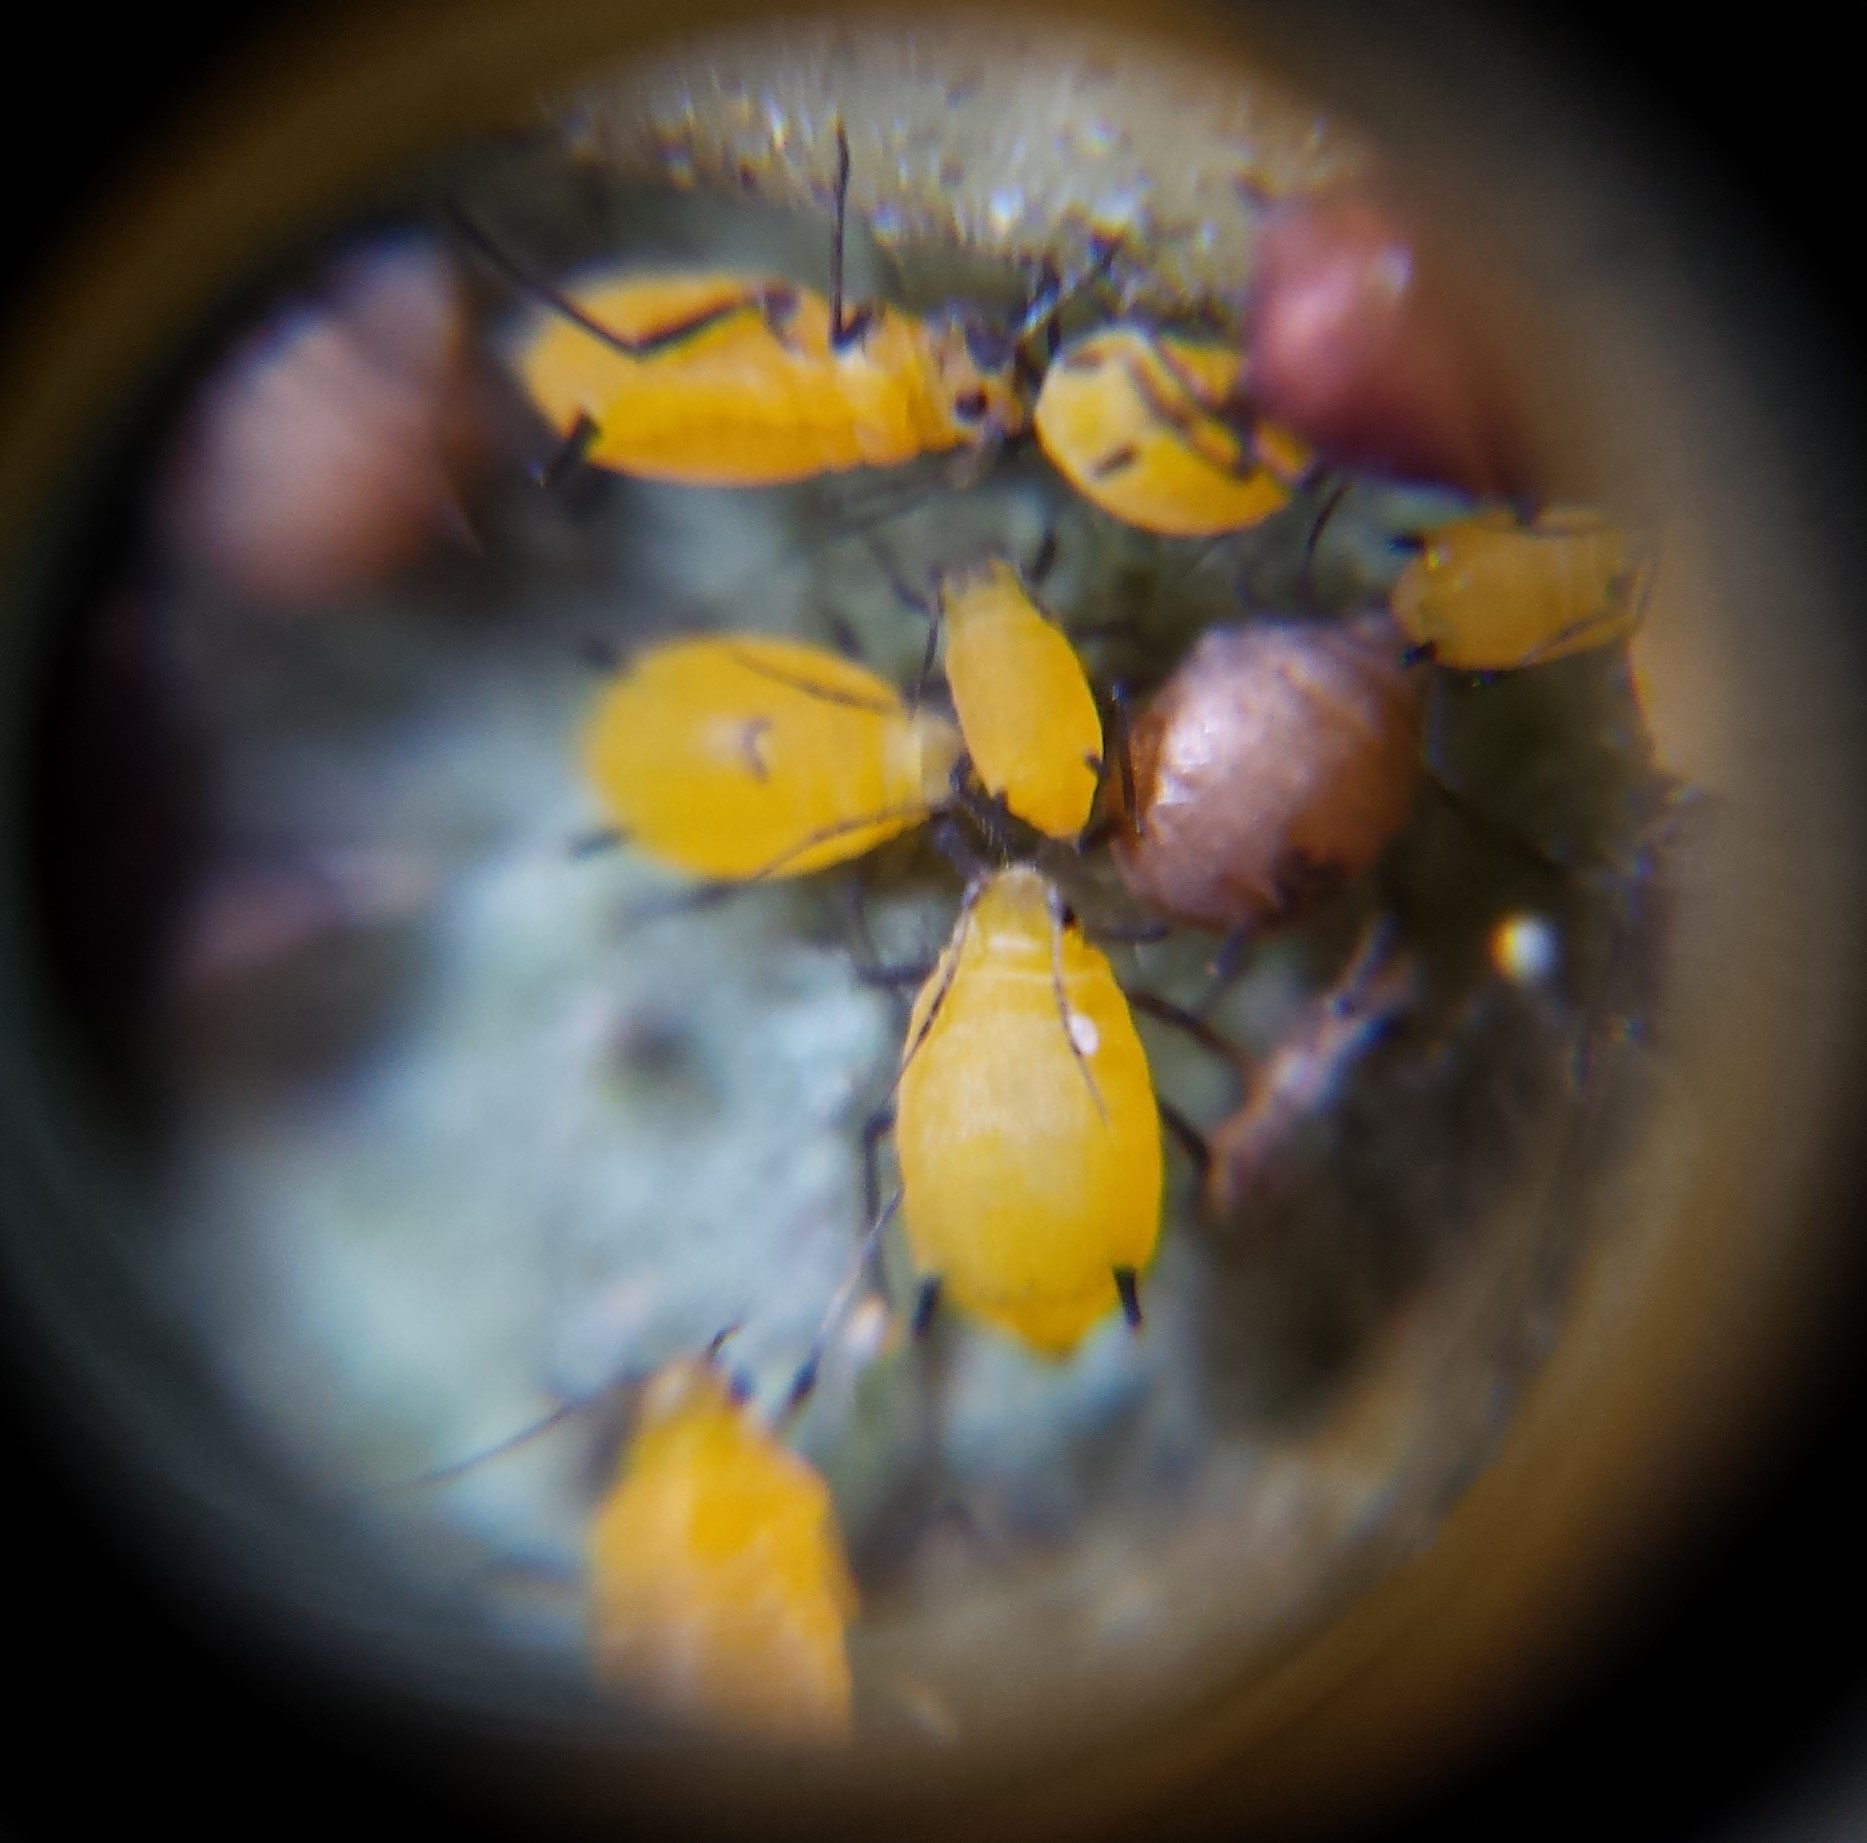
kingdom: Animalia
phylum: Arthropoda
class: Insecta
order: Hemiptera
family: Aphididae
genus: Aphis
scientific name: Aphis nerii
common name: Oleander aphid
